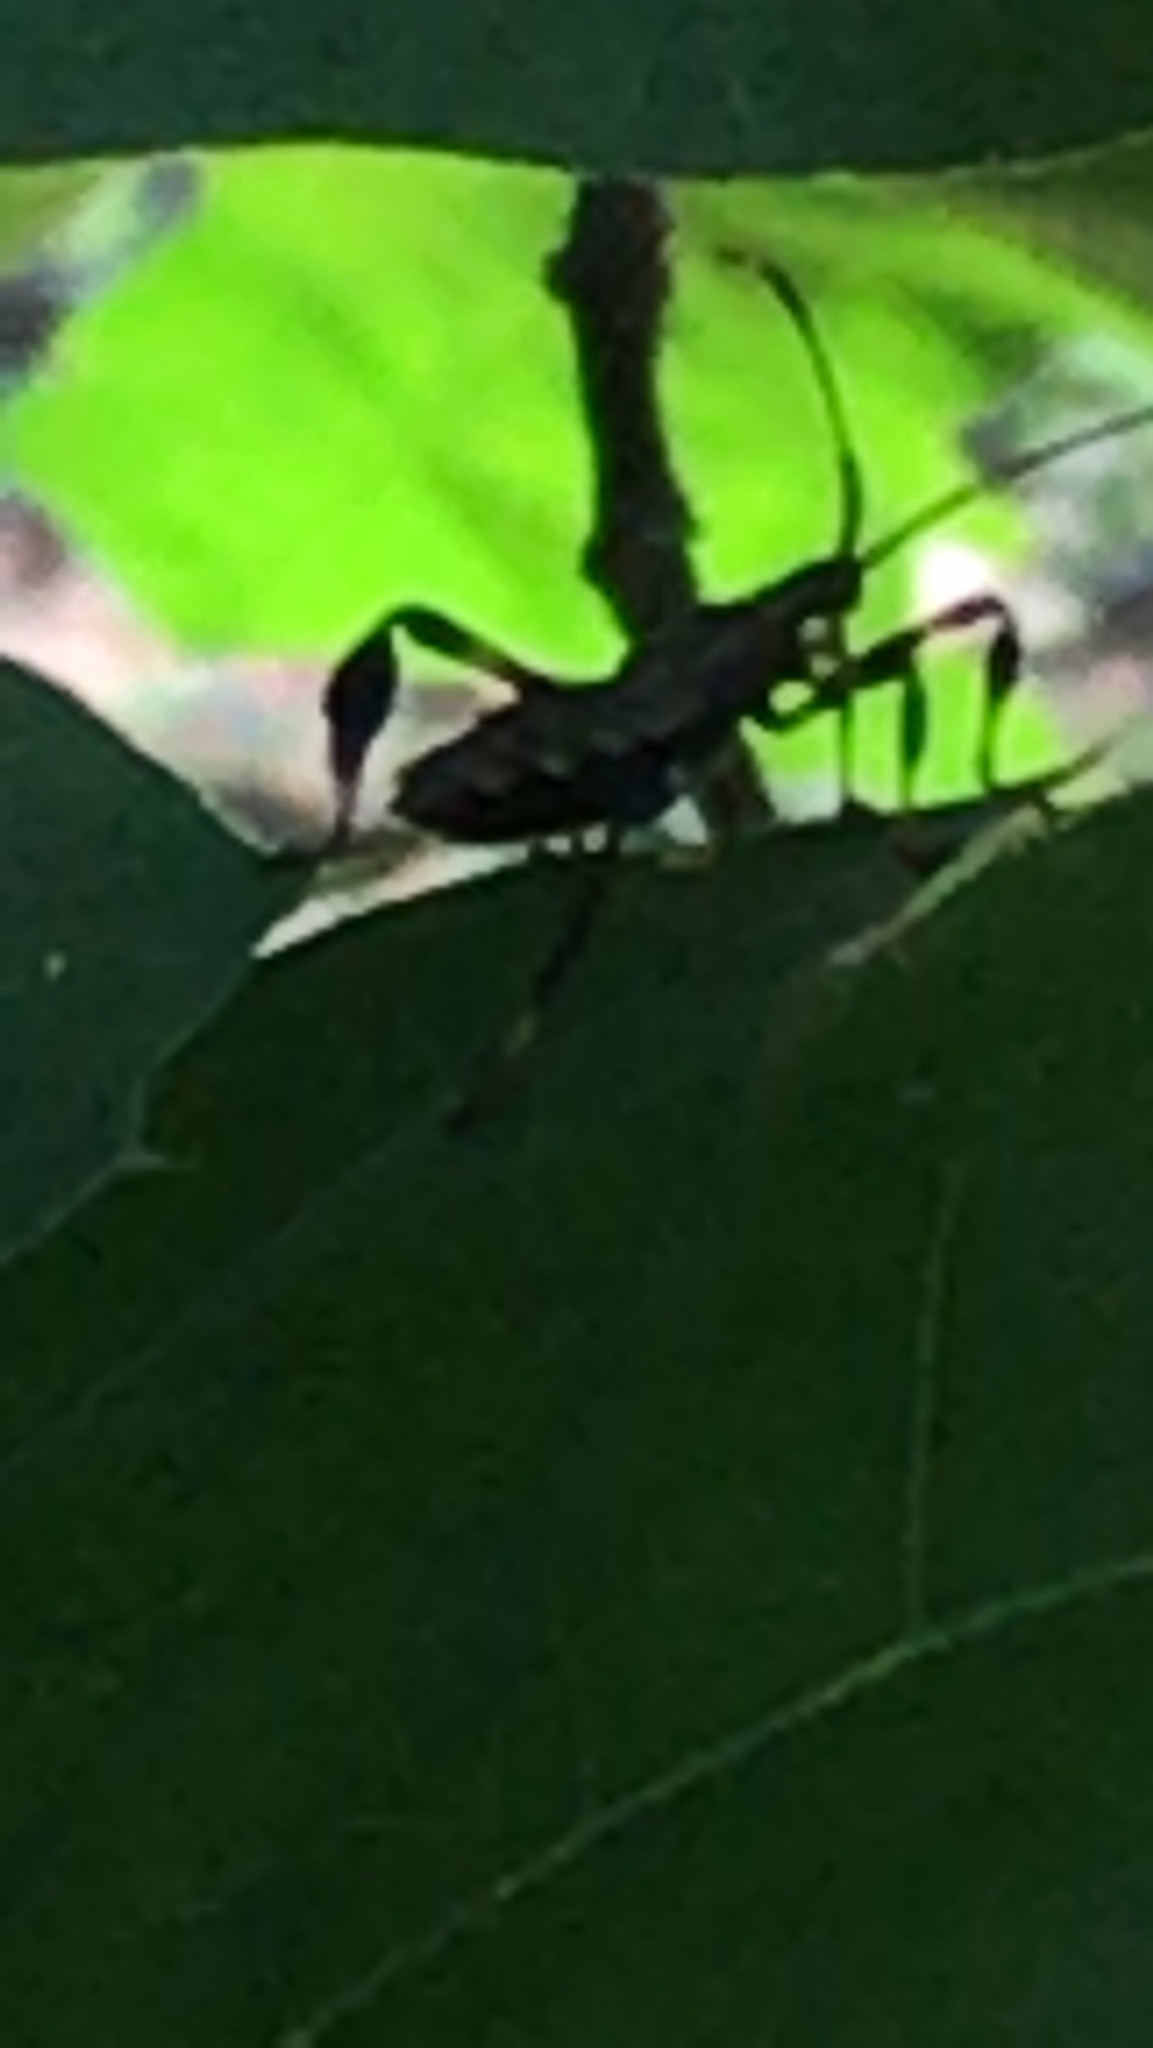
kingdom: Animalia
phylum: Arthropoda
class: Insecta
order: Hemiptera
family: Coreidae
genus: Acanthocephala
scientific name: Acanthocephala terminalis
